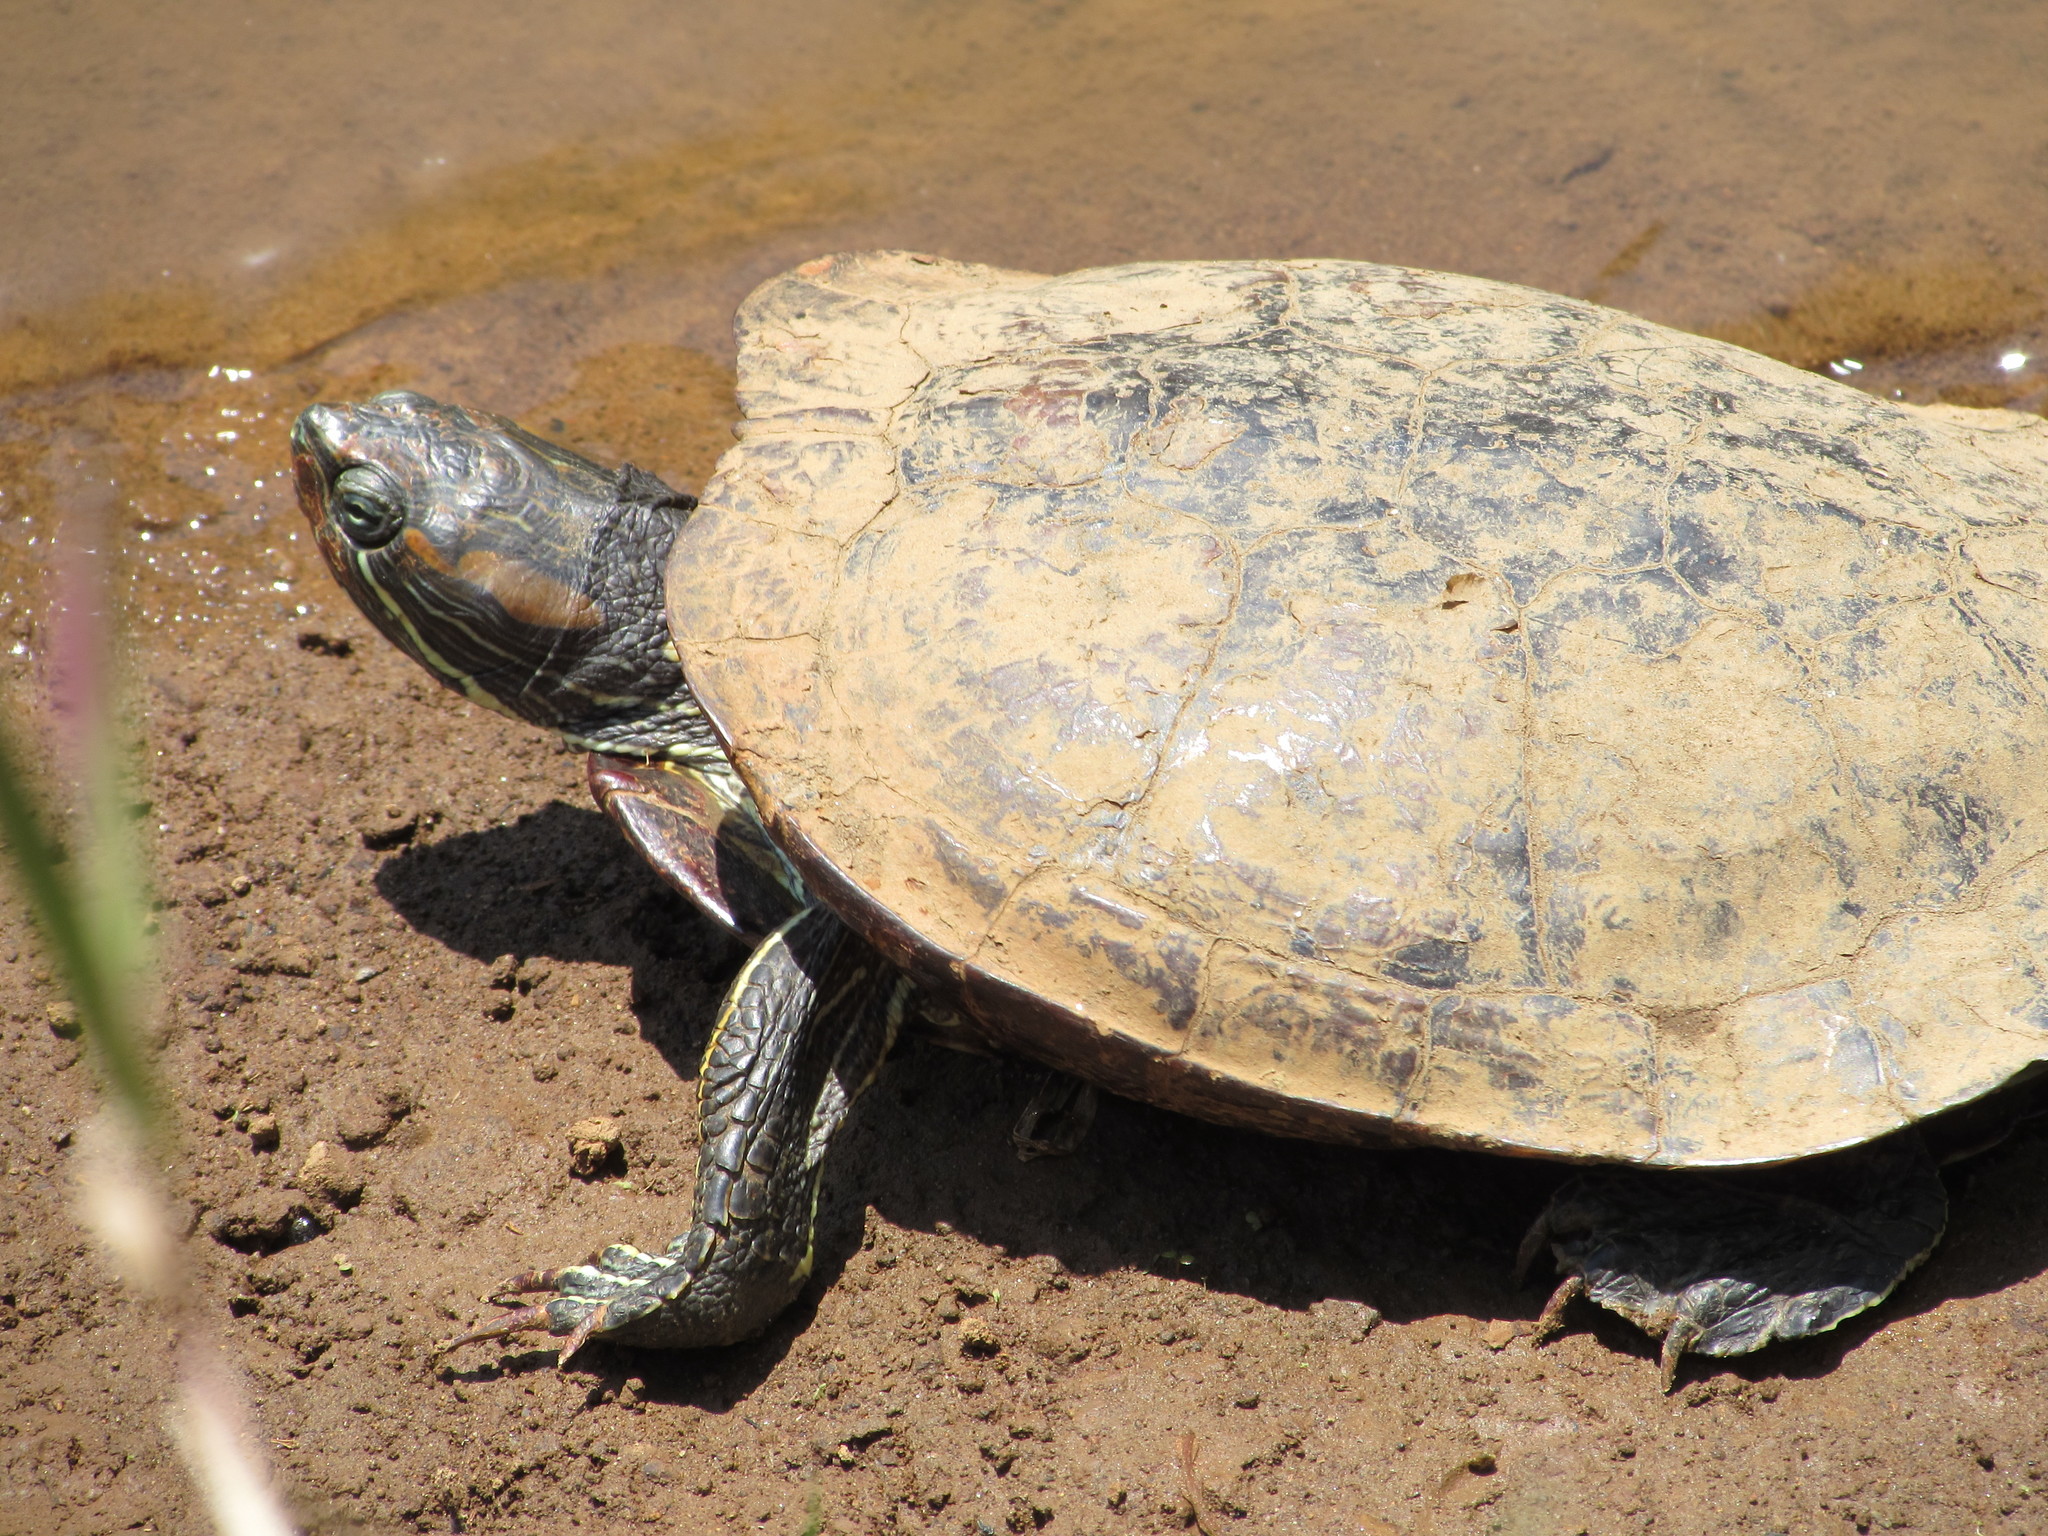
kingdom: Animalia
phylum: Chordata
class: Testudines
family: Emydidae
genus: Trachemys
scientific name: Trachemys scripta
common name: Slider
